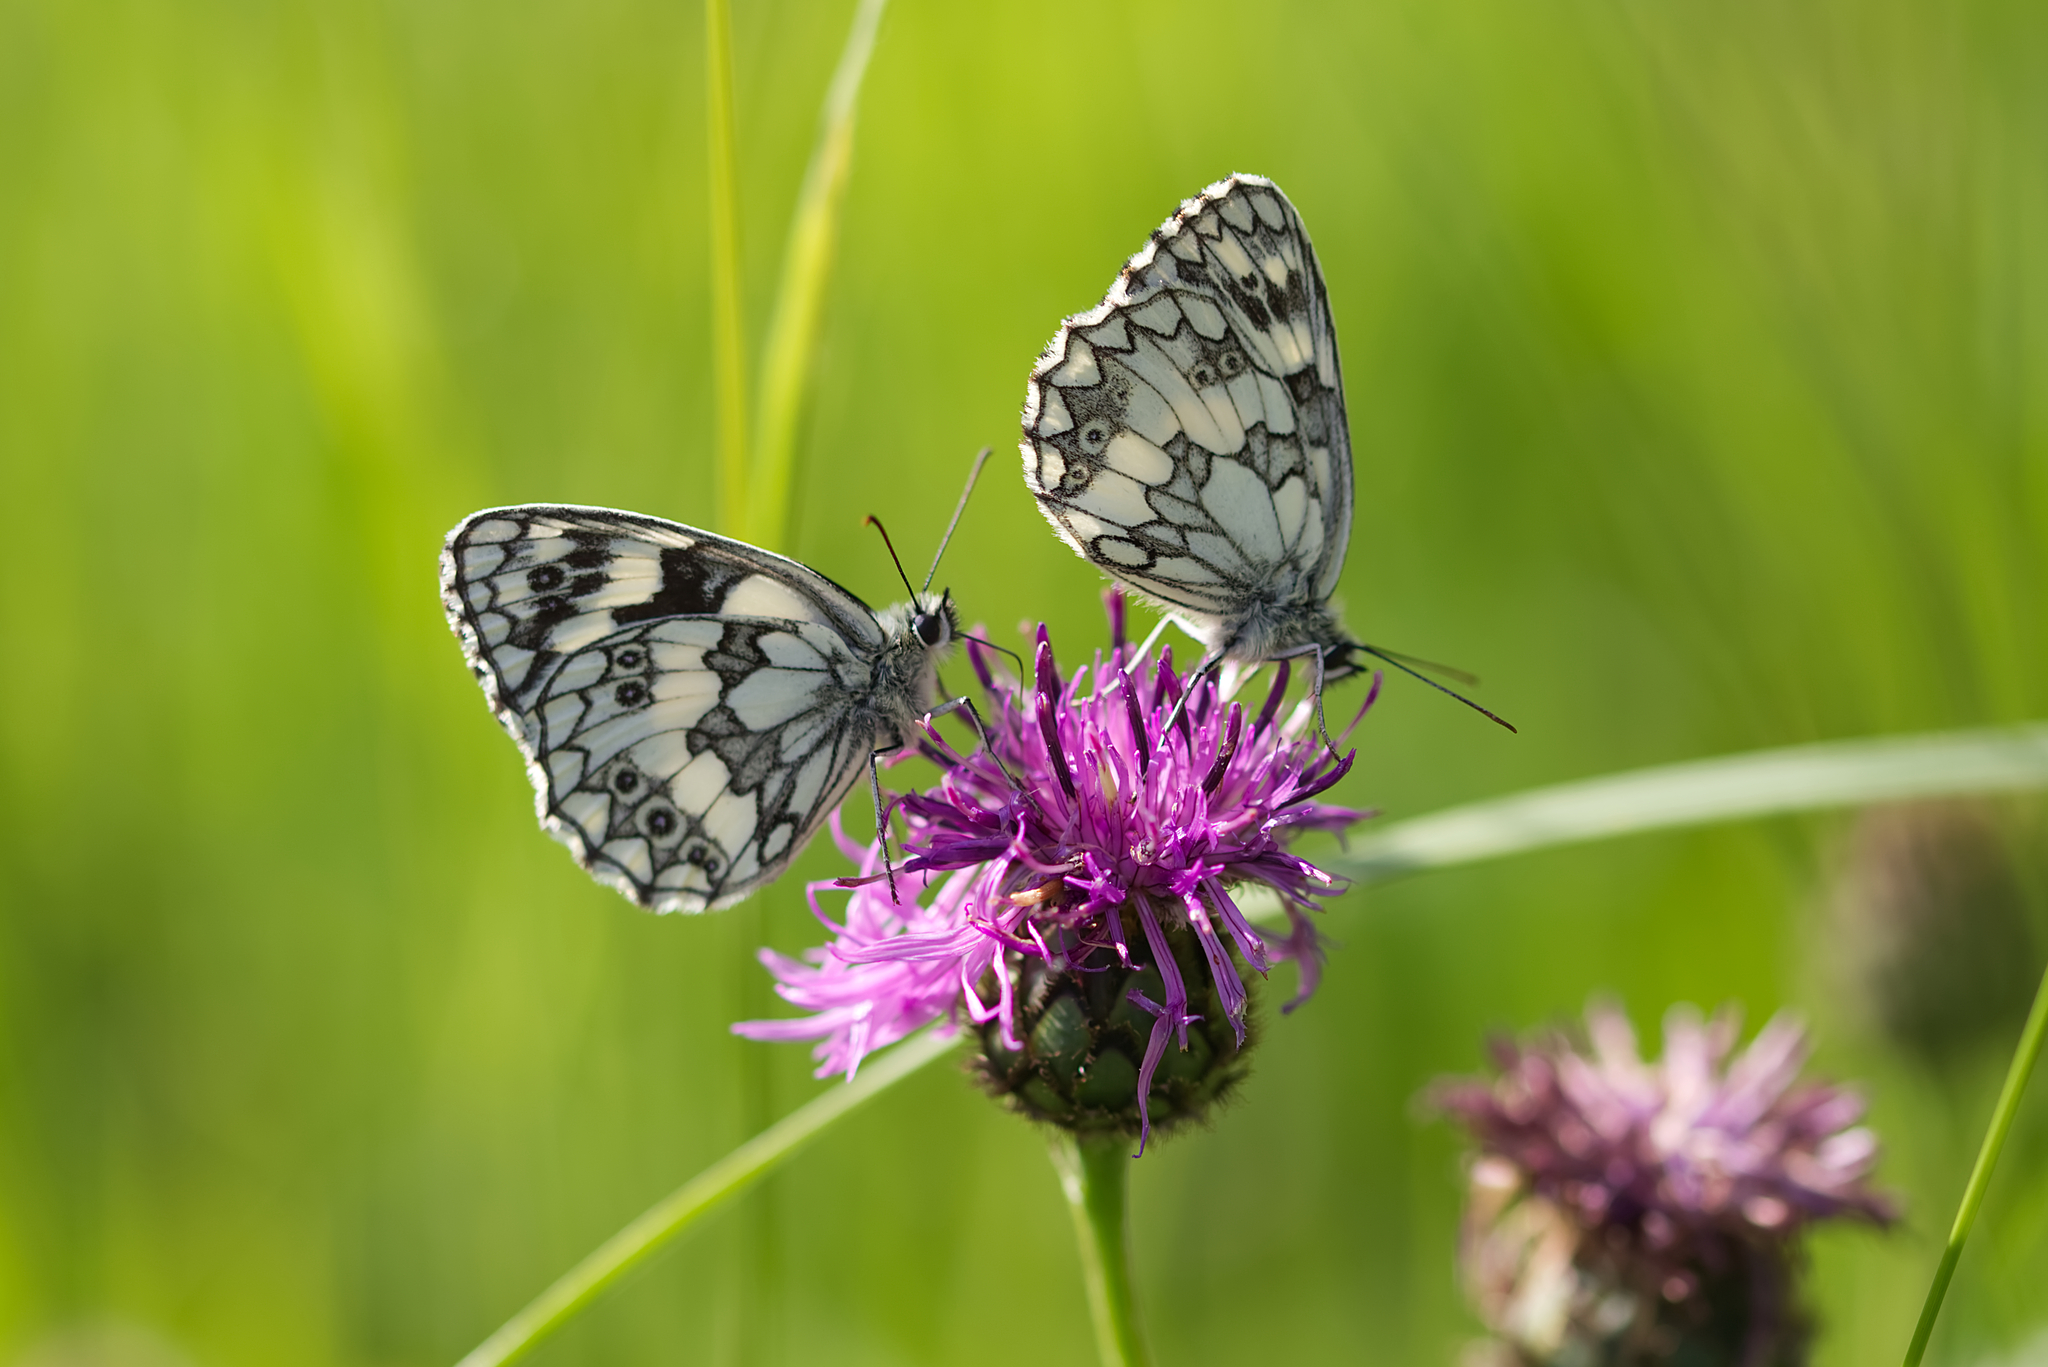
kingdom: Animalia
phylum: Arthropoda
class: Insecta
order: Lepidoptera
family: Nymphalidae
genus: Melanargia
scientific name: Melanargia galathea
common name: Marbled white
